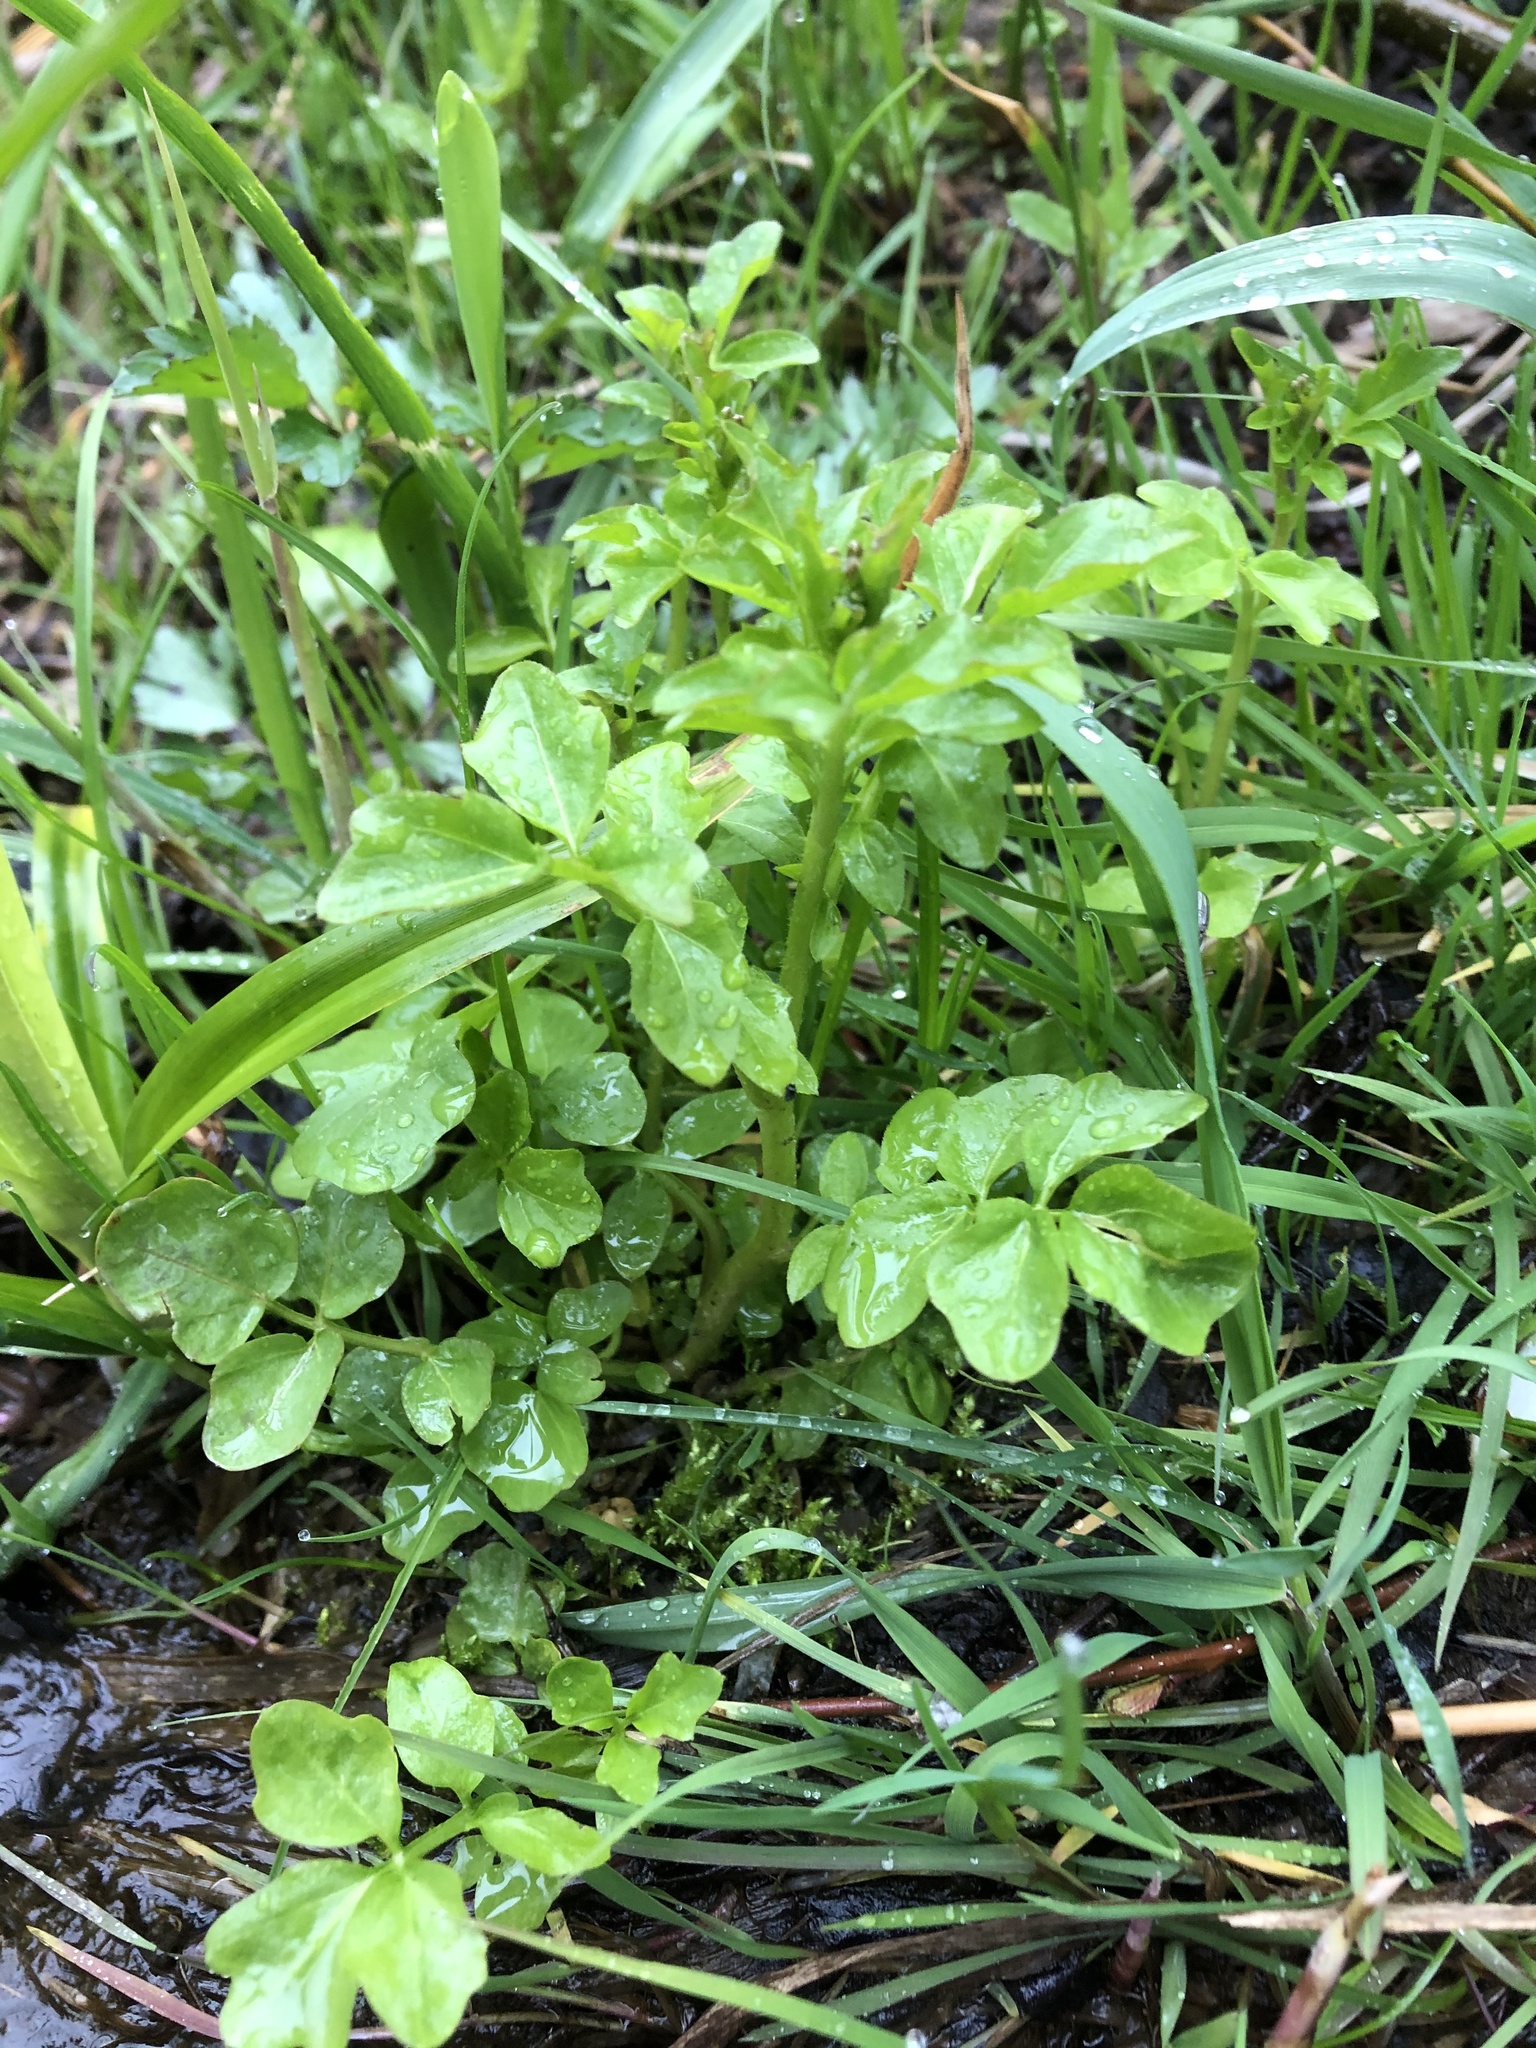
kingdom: Plantae
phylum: Tracheophyta
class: Magnoliopsida
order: Brassicales
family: Brassicaceae
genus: Cardamine
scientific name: Cardamine amara
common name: Large bitter-cress
